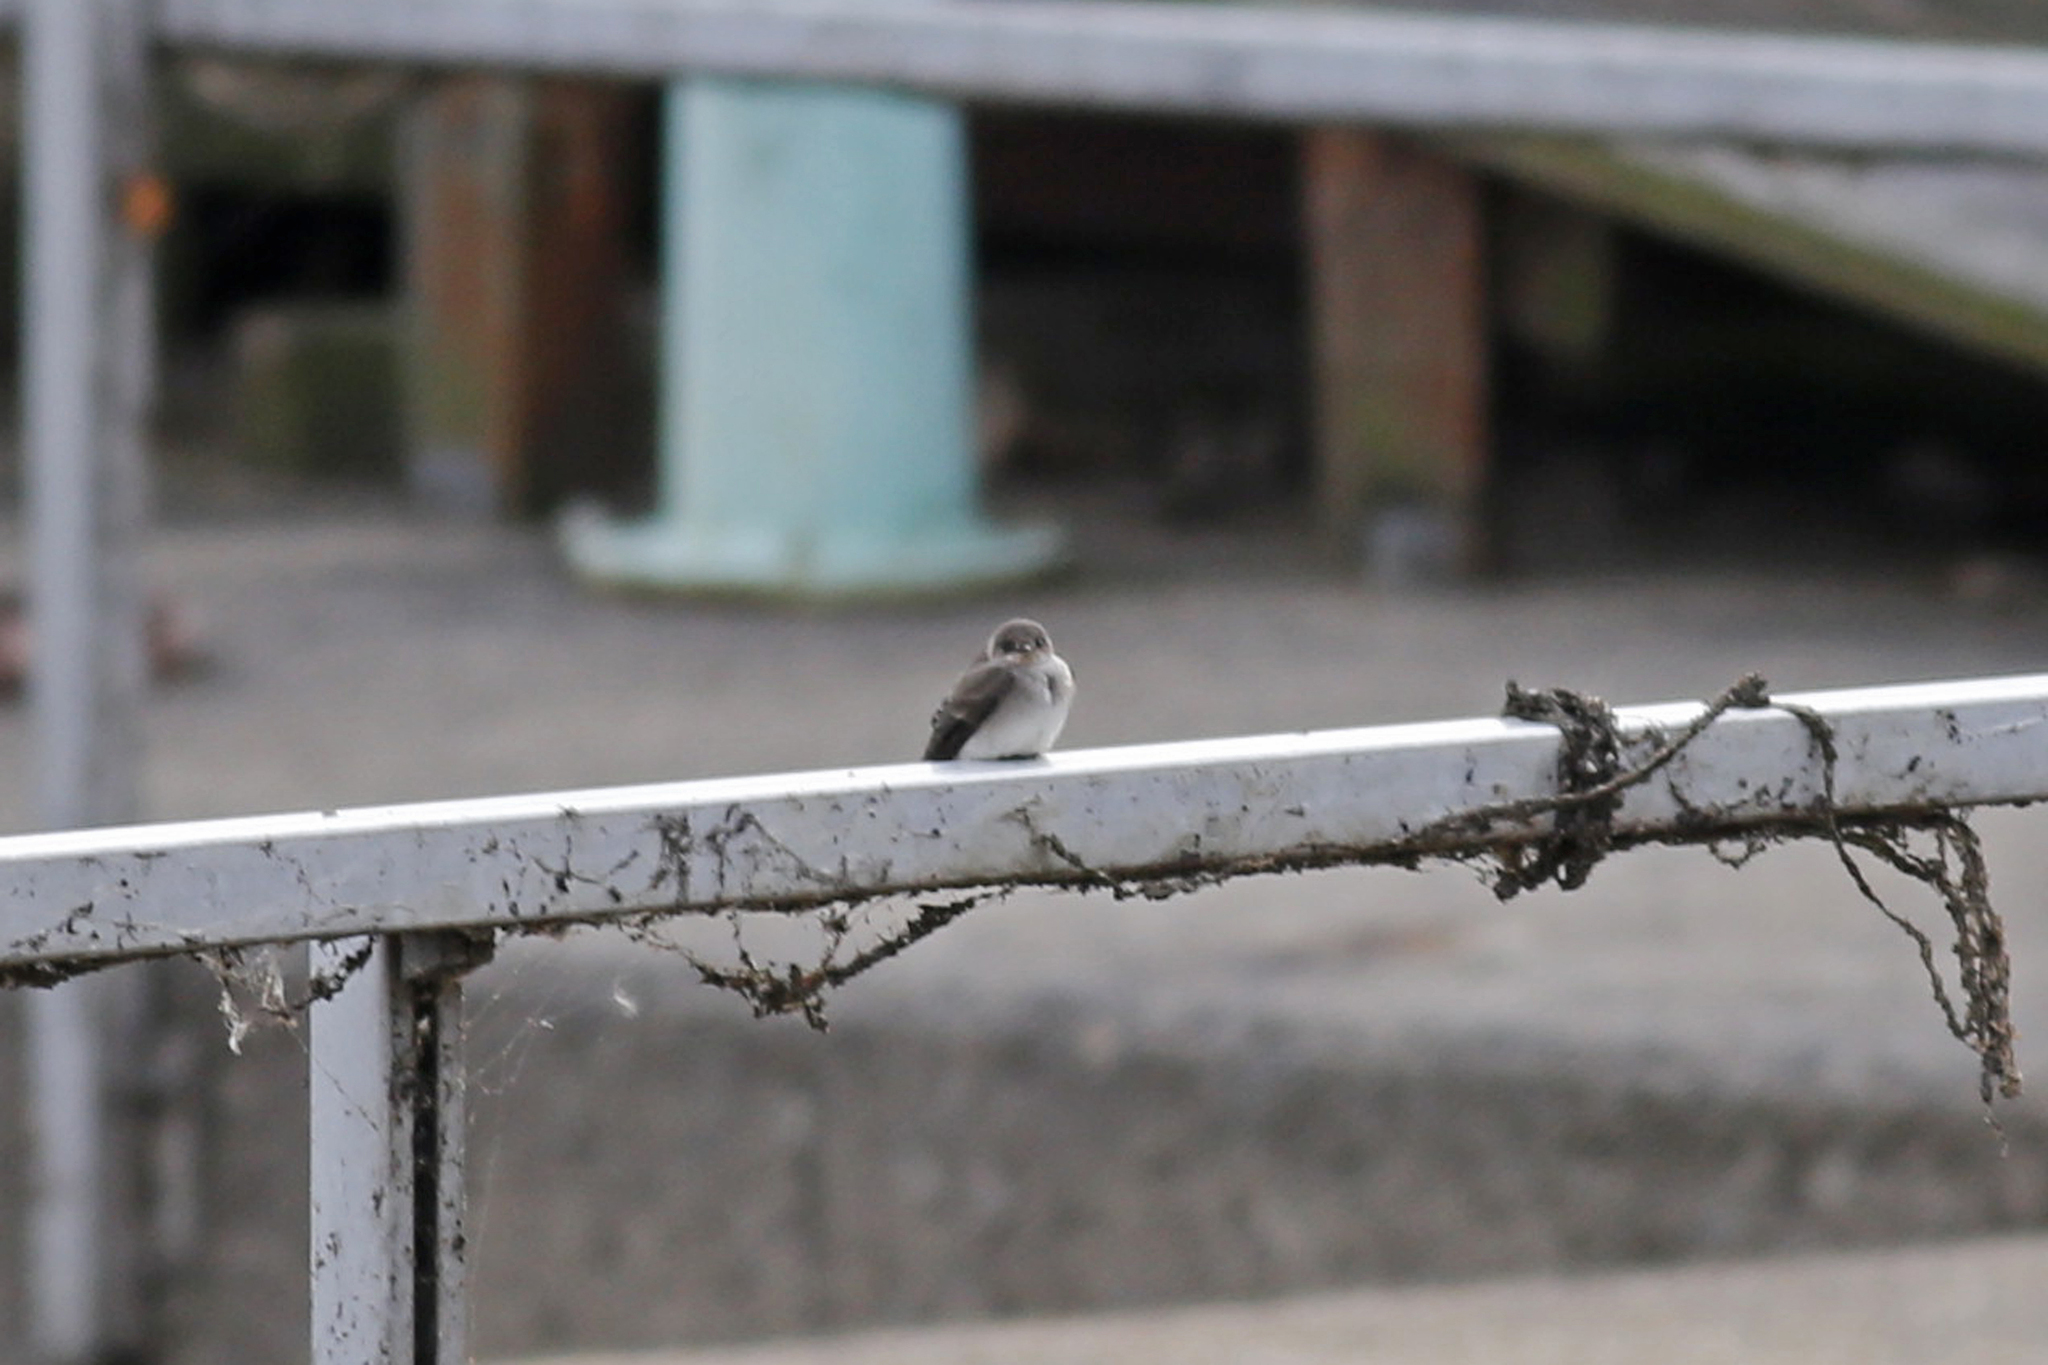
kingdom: Animalia
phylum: Chordata
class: Aves
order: Passeriformes
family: Hirundinidae
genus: Stelgidopteryx
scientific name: Stelgidopteryx serripennis
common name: Northern rough-winged swallow
